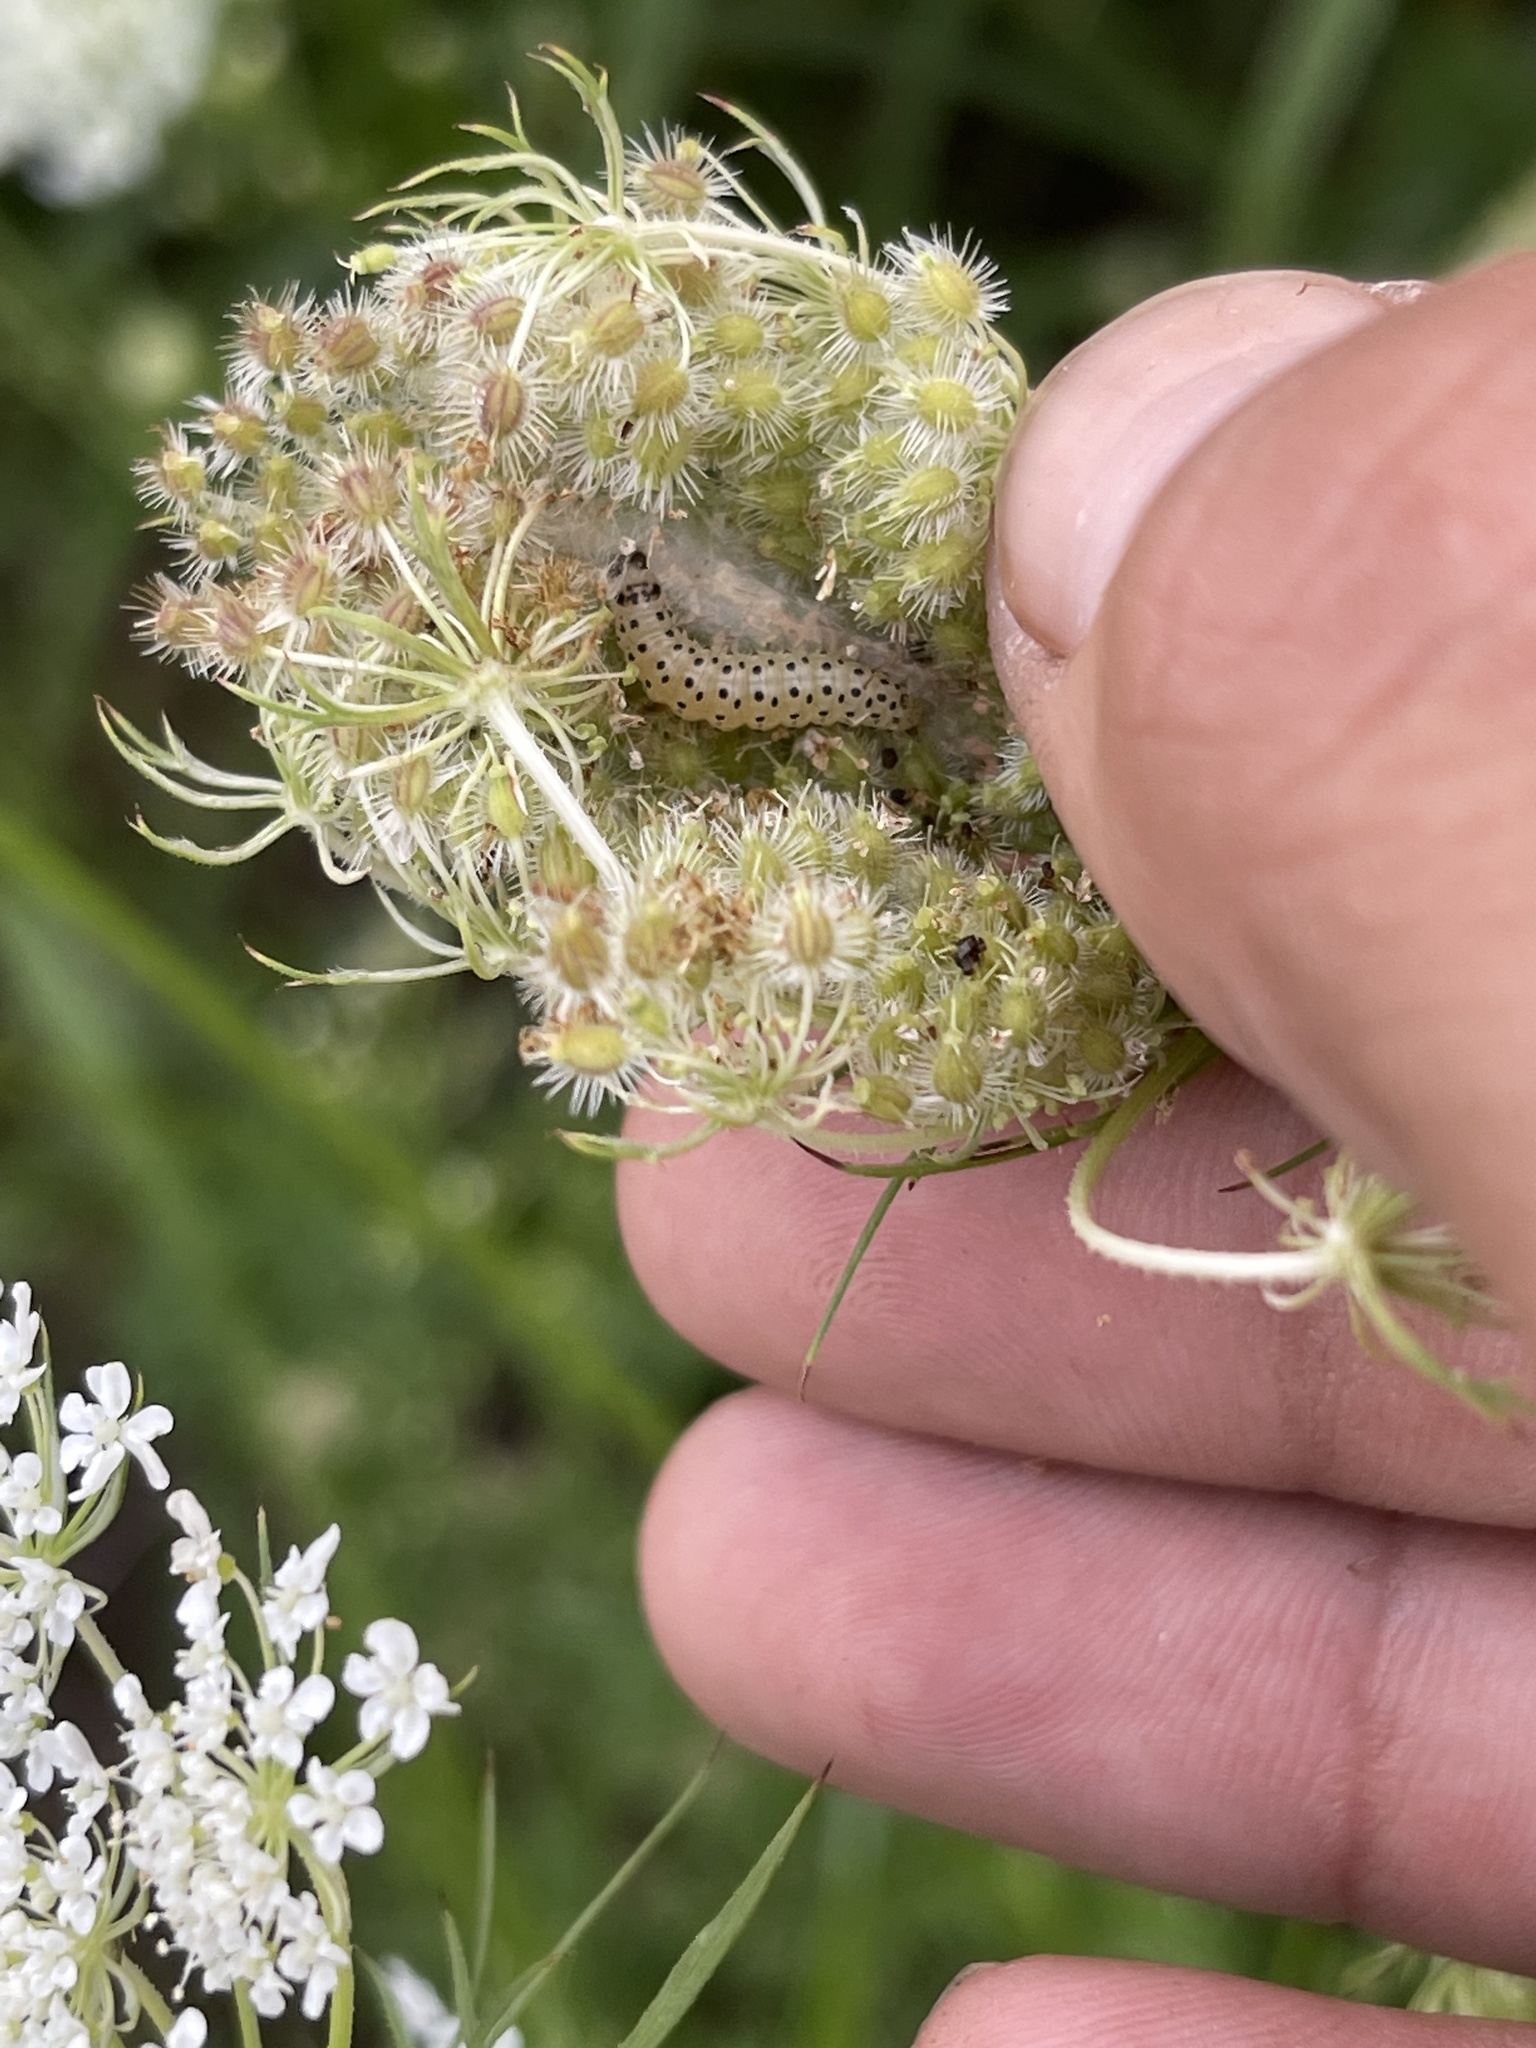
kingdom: Animalia
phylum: Arthropoda
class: Insecta
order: Lepidoptera
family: Crambidae
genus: Sitochroa
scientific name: Sitochroa palealis
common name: Greenish-yellow sitochroa moth
